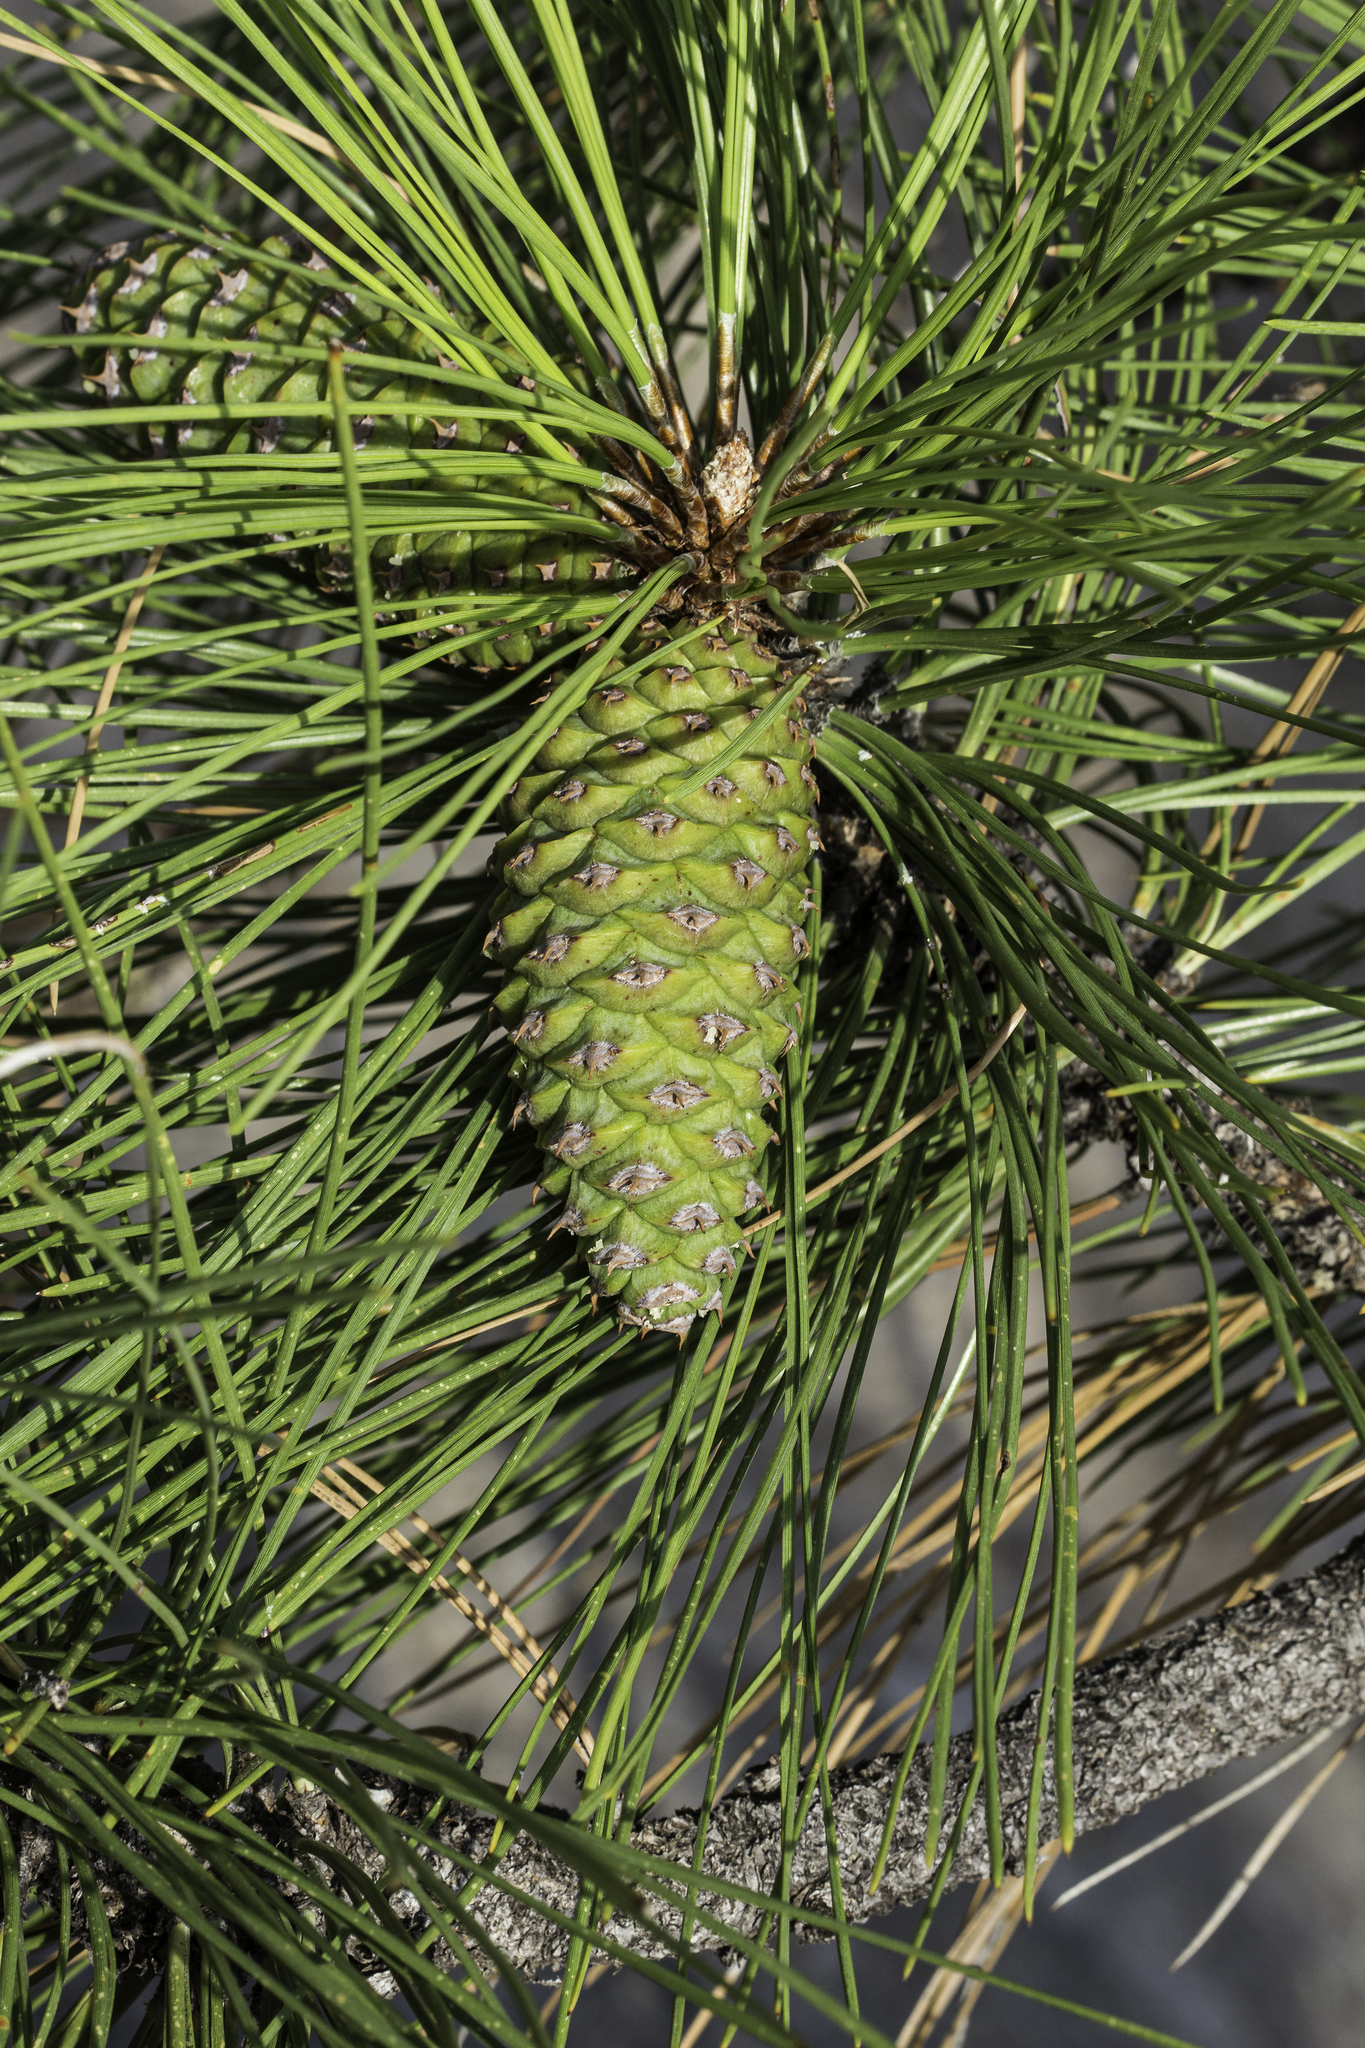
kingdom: Plantae
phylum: Tracheophyta
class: Pinopsida
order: Pinales
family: Pinaceae
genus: Pinus
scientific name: Pinus ponderosa
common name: Western yellow-pine
